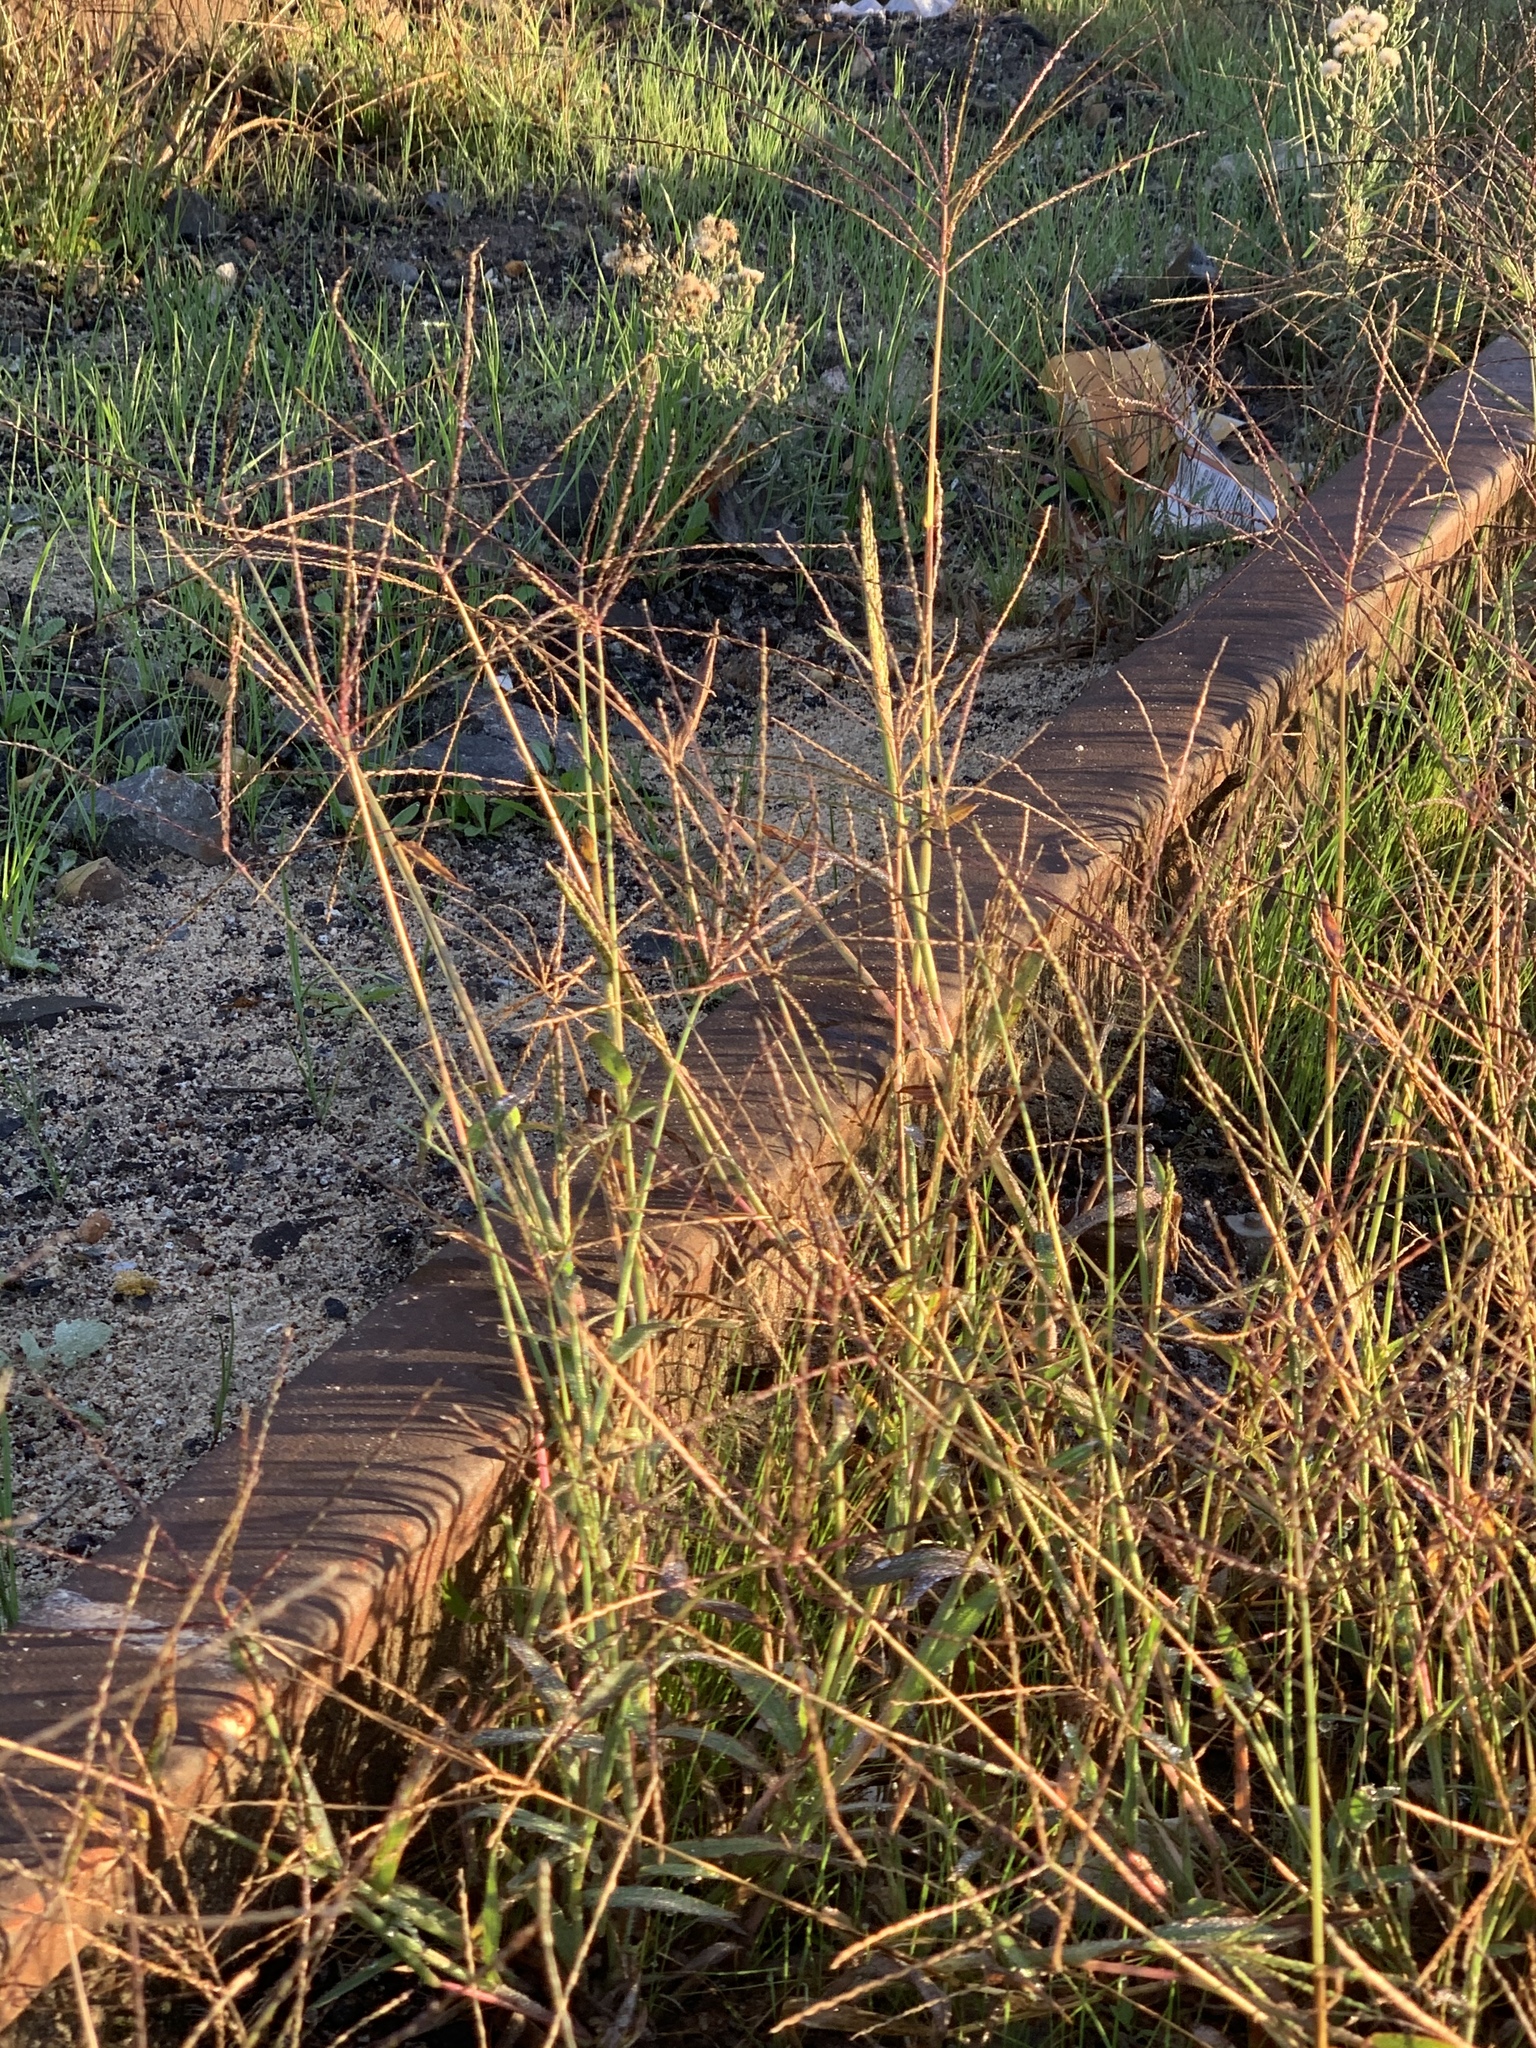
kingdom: Plantae
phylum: Tracheophyta
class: Liliopsida
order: Poales
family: Poaceae
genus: Cynodon
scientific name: Cynodon dactylon
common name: Bermuda grass
